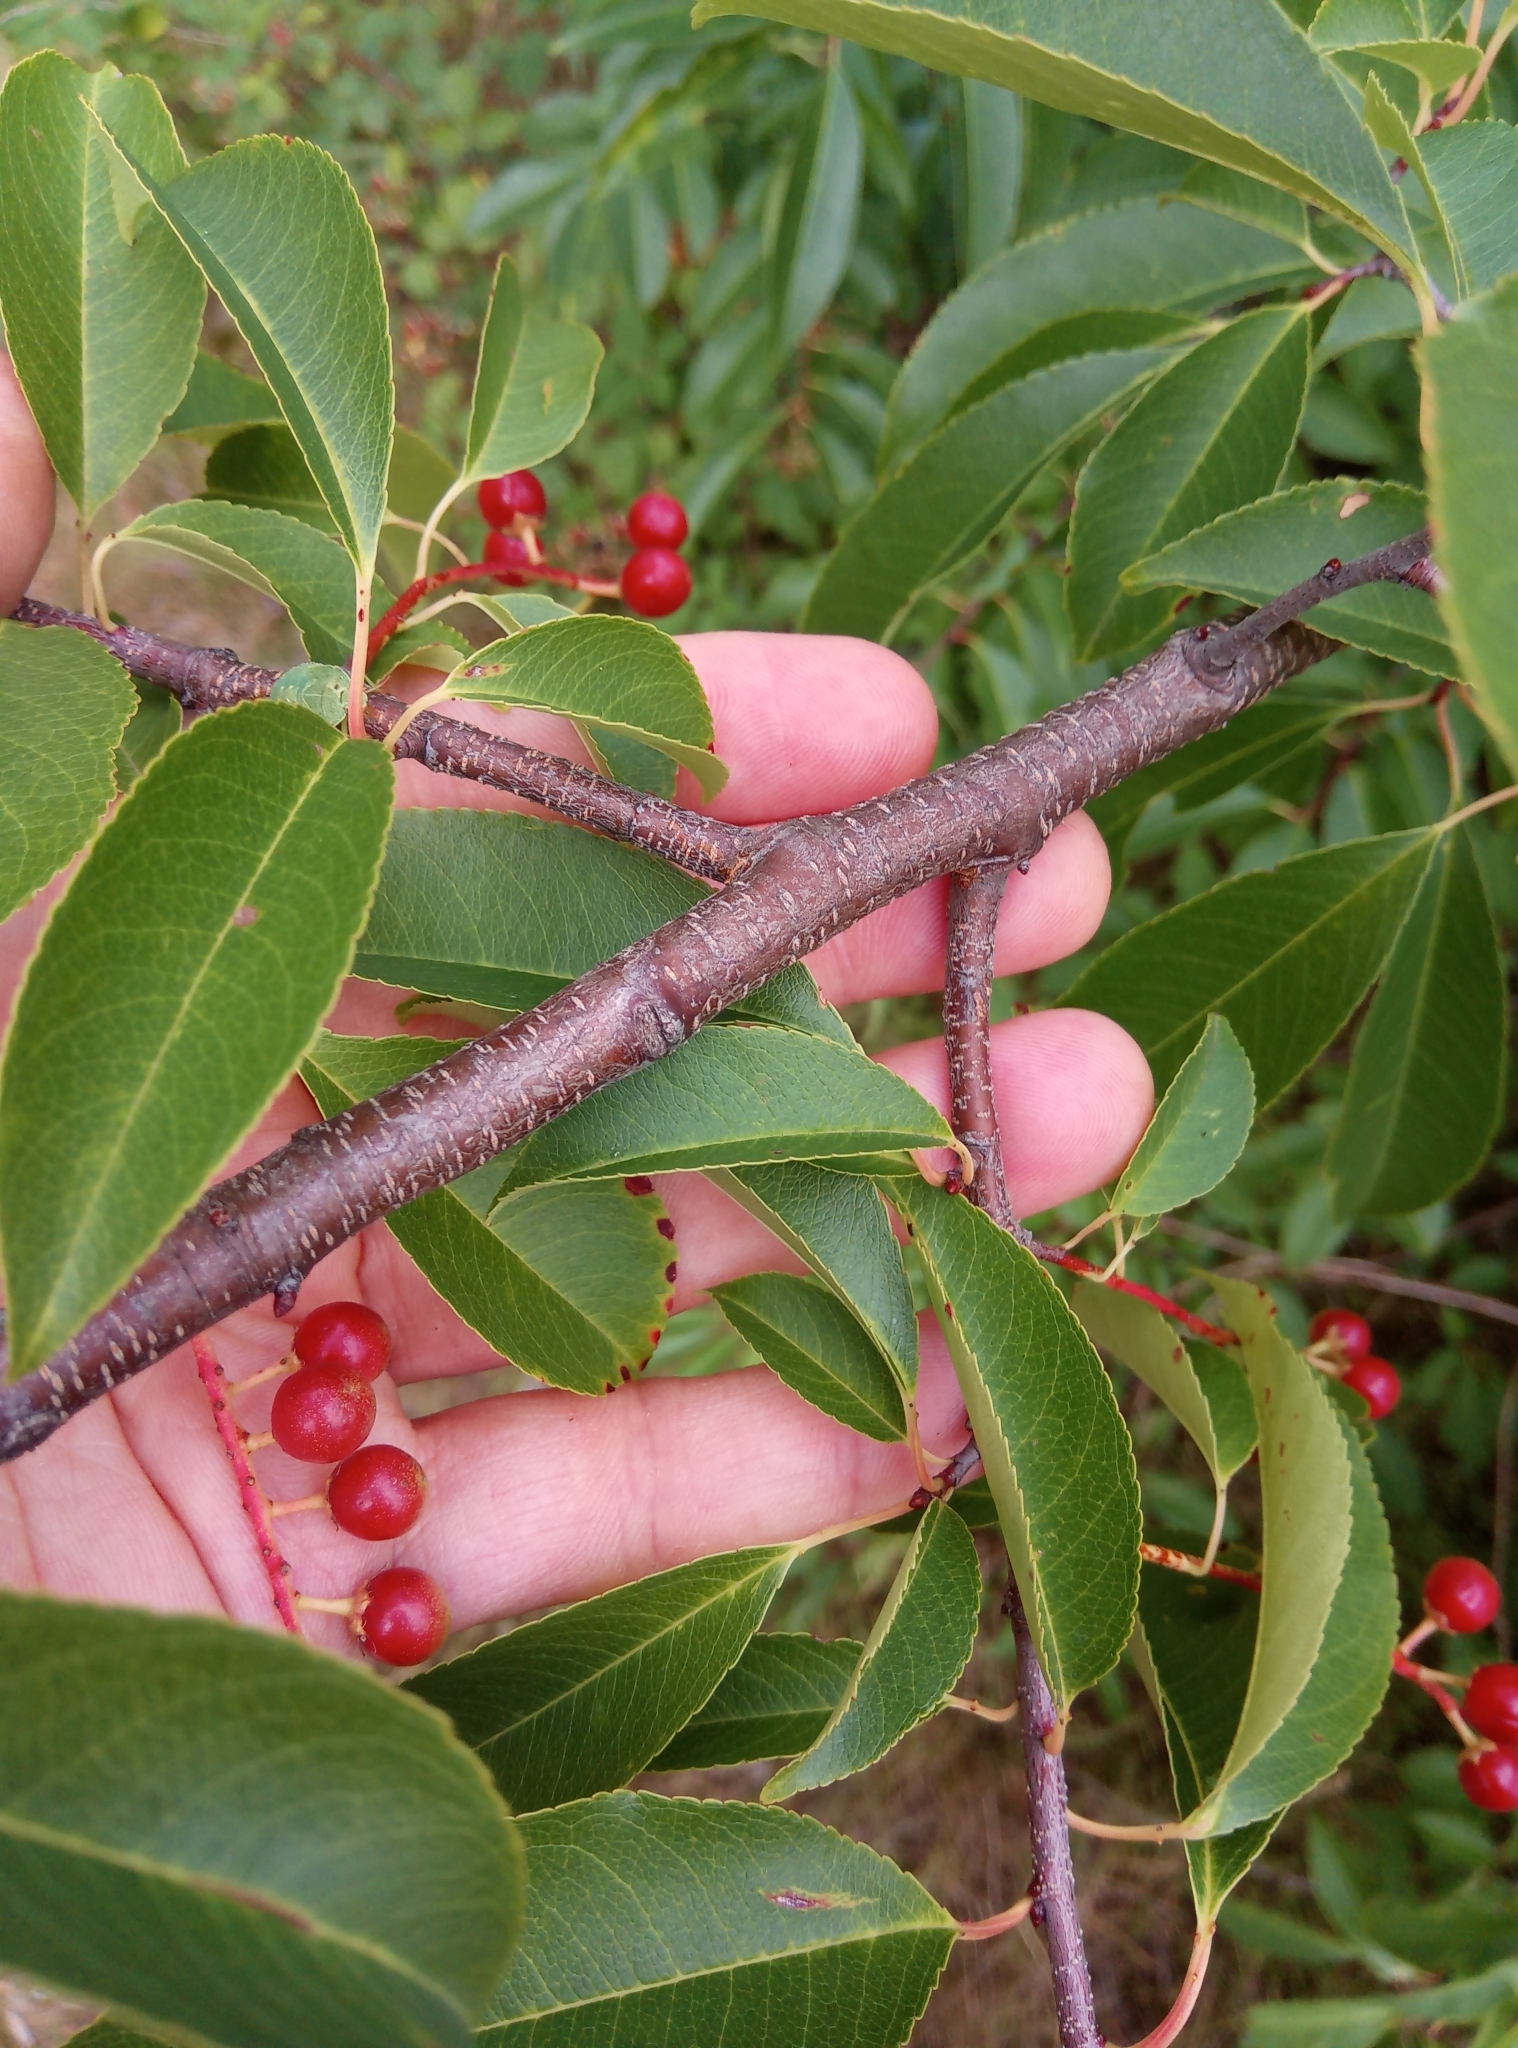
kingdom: Plantae
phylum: Tracheophyta
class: Magnoliopsida
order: Rosales
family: Rosaceae
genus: Prunus
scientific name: Prunus serotina
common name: Black cherry
